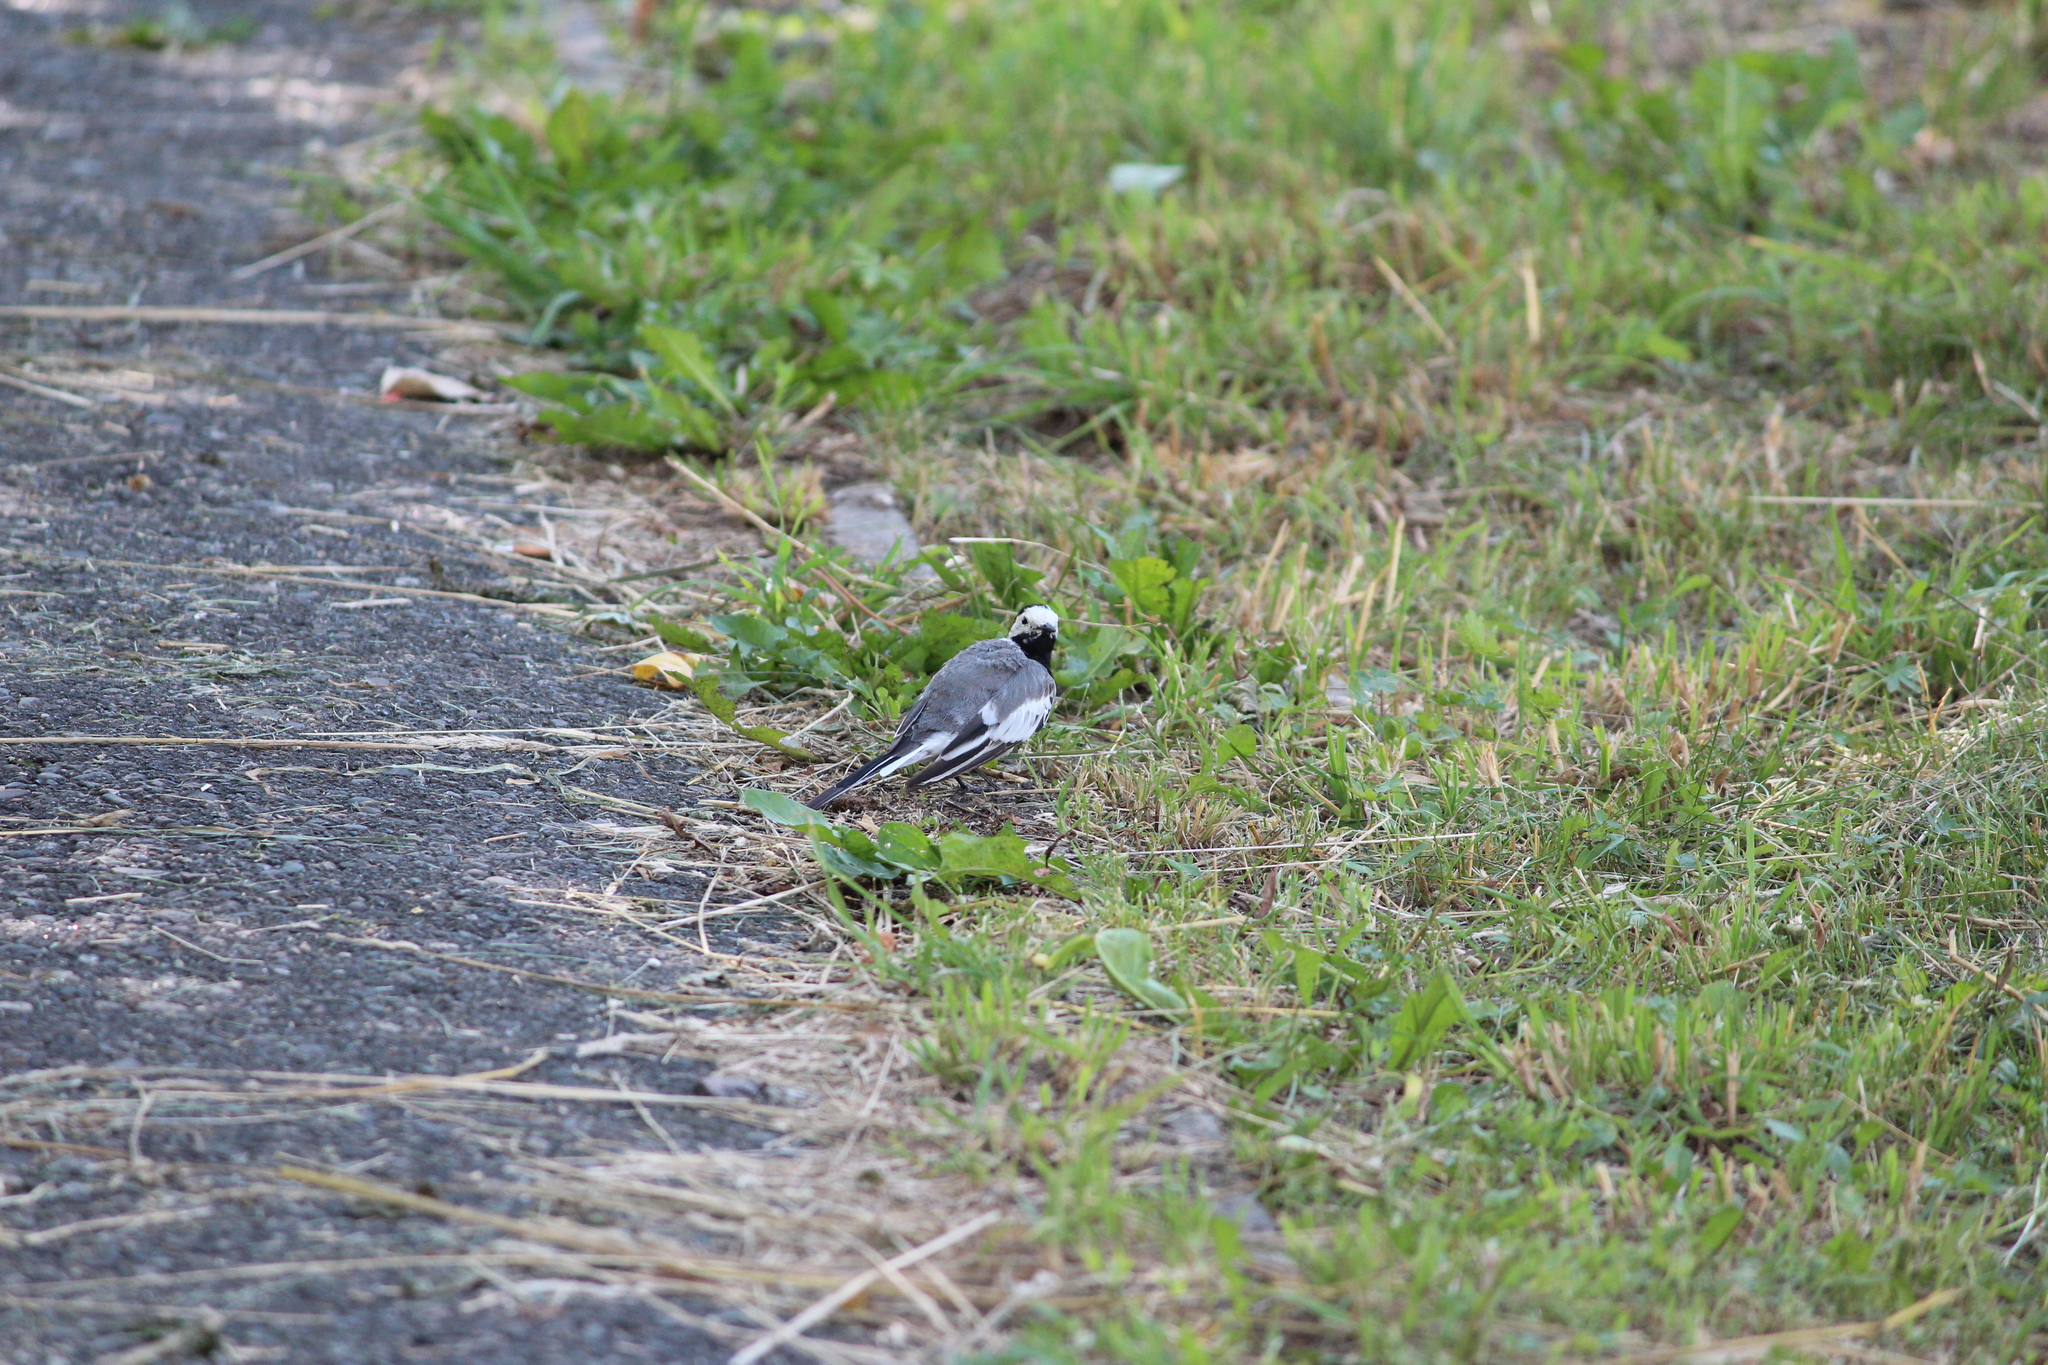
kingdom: Animalia
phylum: Chordata
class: Aves
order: Passeriformes
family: Motacillidae
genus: Motacilla
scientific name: Motacilla alba
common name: White wagtail
